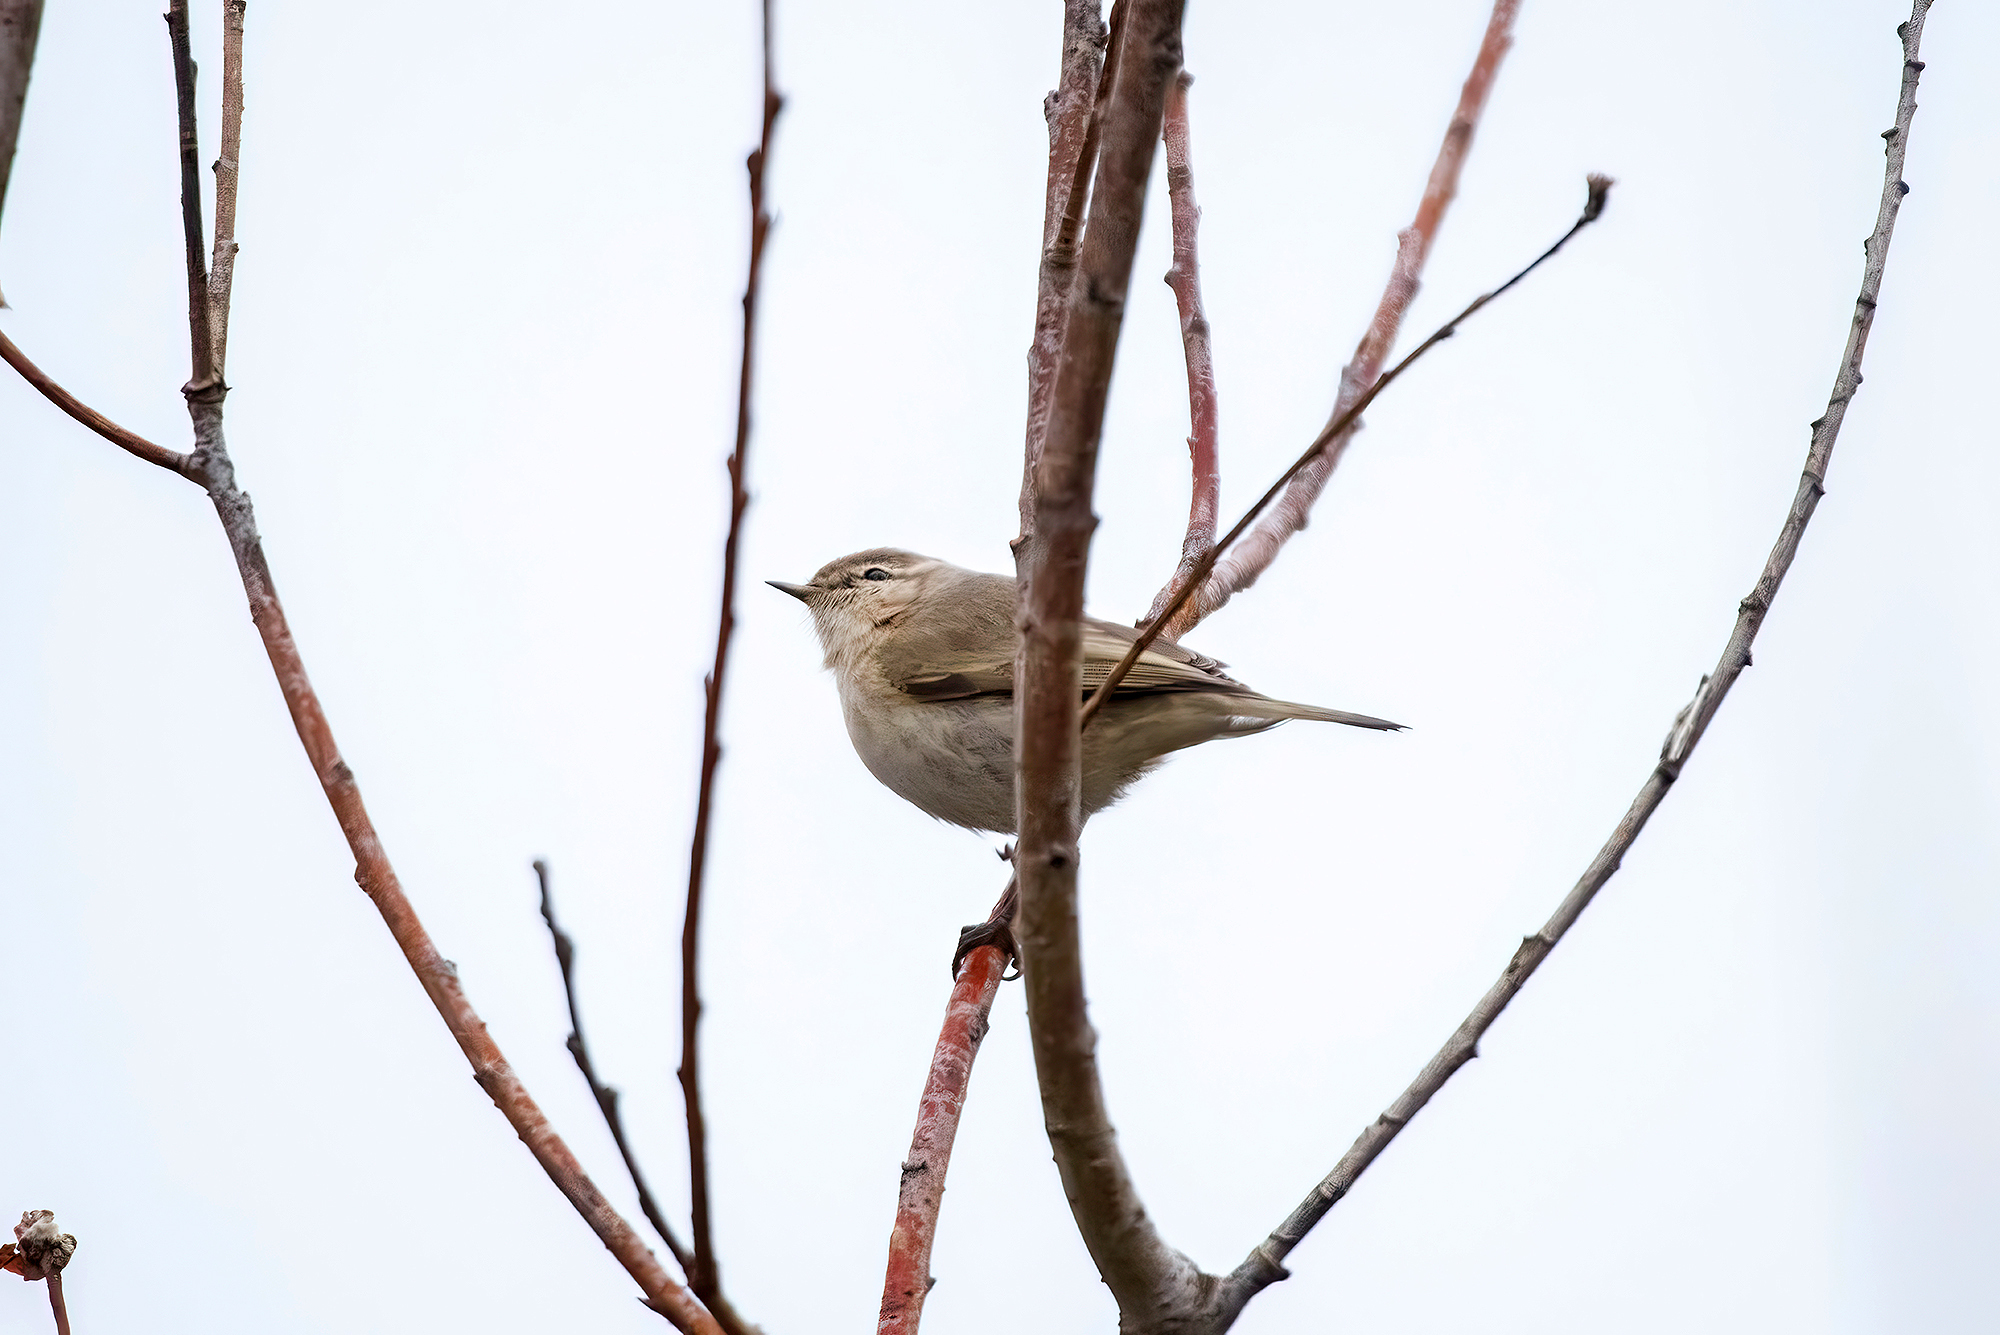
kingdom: Animalia
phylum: Chordata
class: Aves
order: Passeriformes
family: Phylloscopidae
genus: Phylloscopus
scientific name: Phylloscopus collybita
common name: Common chiffchaff
